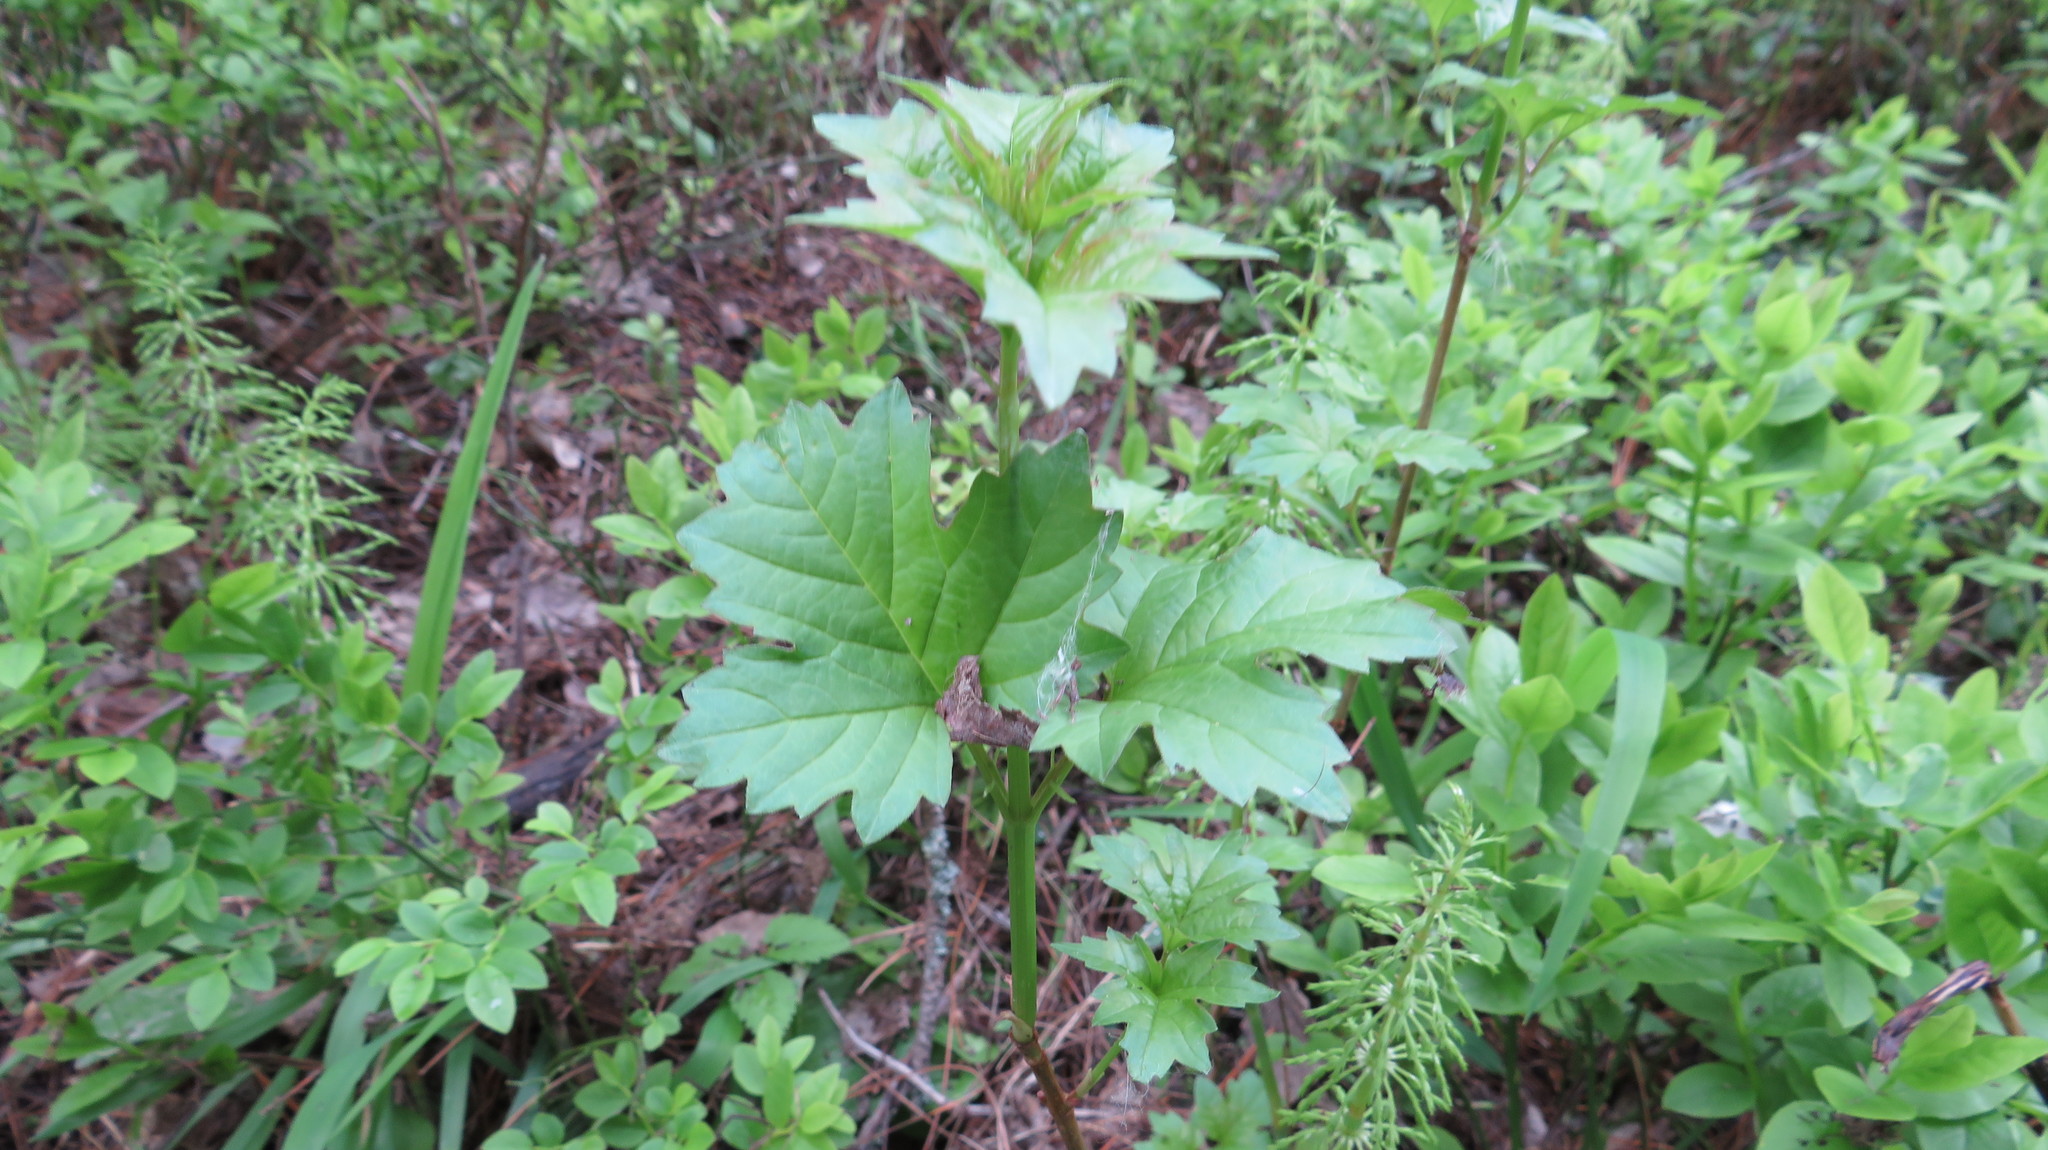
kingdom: Plantae
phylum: Tracheophyta
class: Magnoliopsida
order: Dipsacales
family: Viburnaceae
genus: Viburnum
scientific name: Viburnum opulus
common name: Guelder-rose
